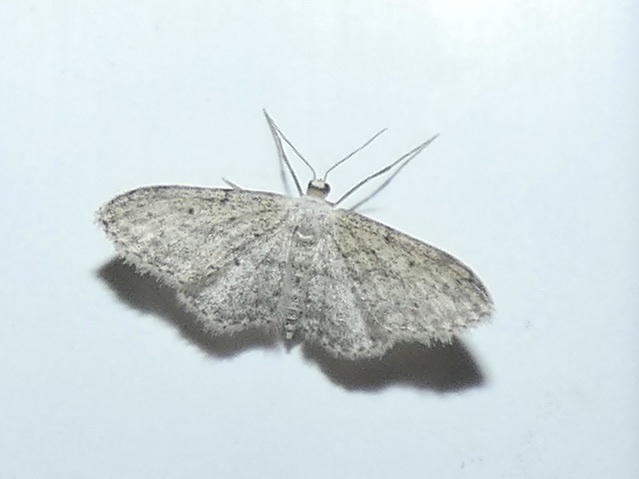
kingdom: Animalia
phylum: Arthropoda
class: Insecta
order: Lepidoptera
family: Geometridae
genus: Idaea
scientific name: Idaea seriata
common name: Small dusty wave
